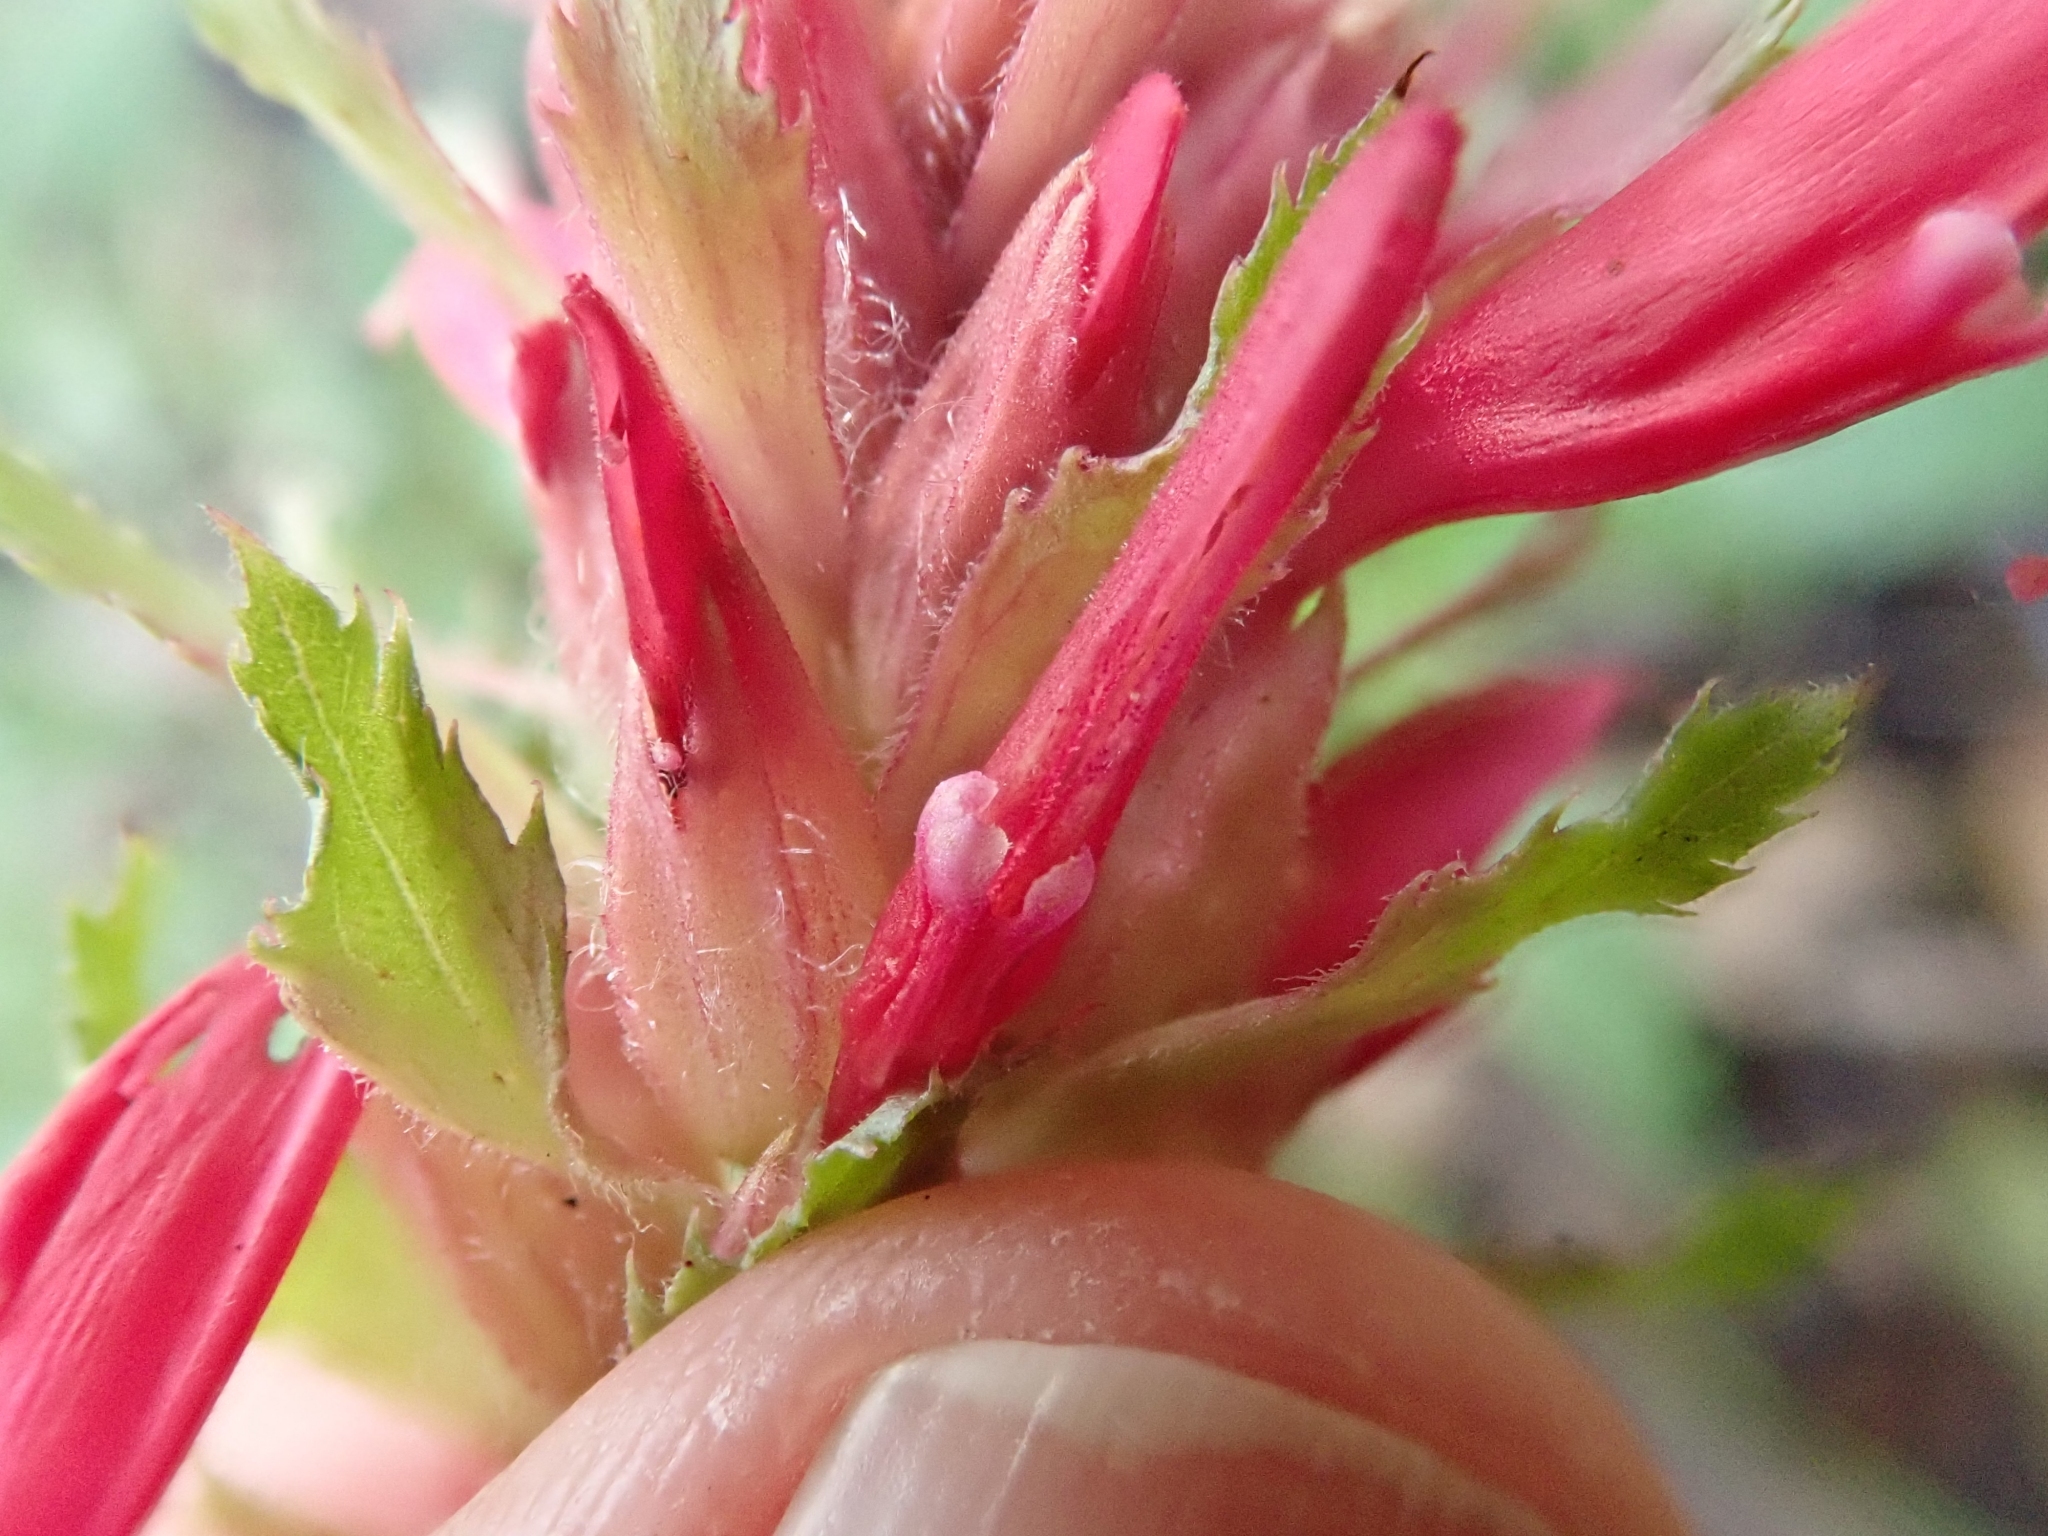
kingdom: Plantae
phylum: Tracheophyta
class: Magnoliopsida
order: Lamiales
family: Orobanchaceae
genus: Pedicularis
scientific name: Pedicularis densiflora
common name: Indian warrior
